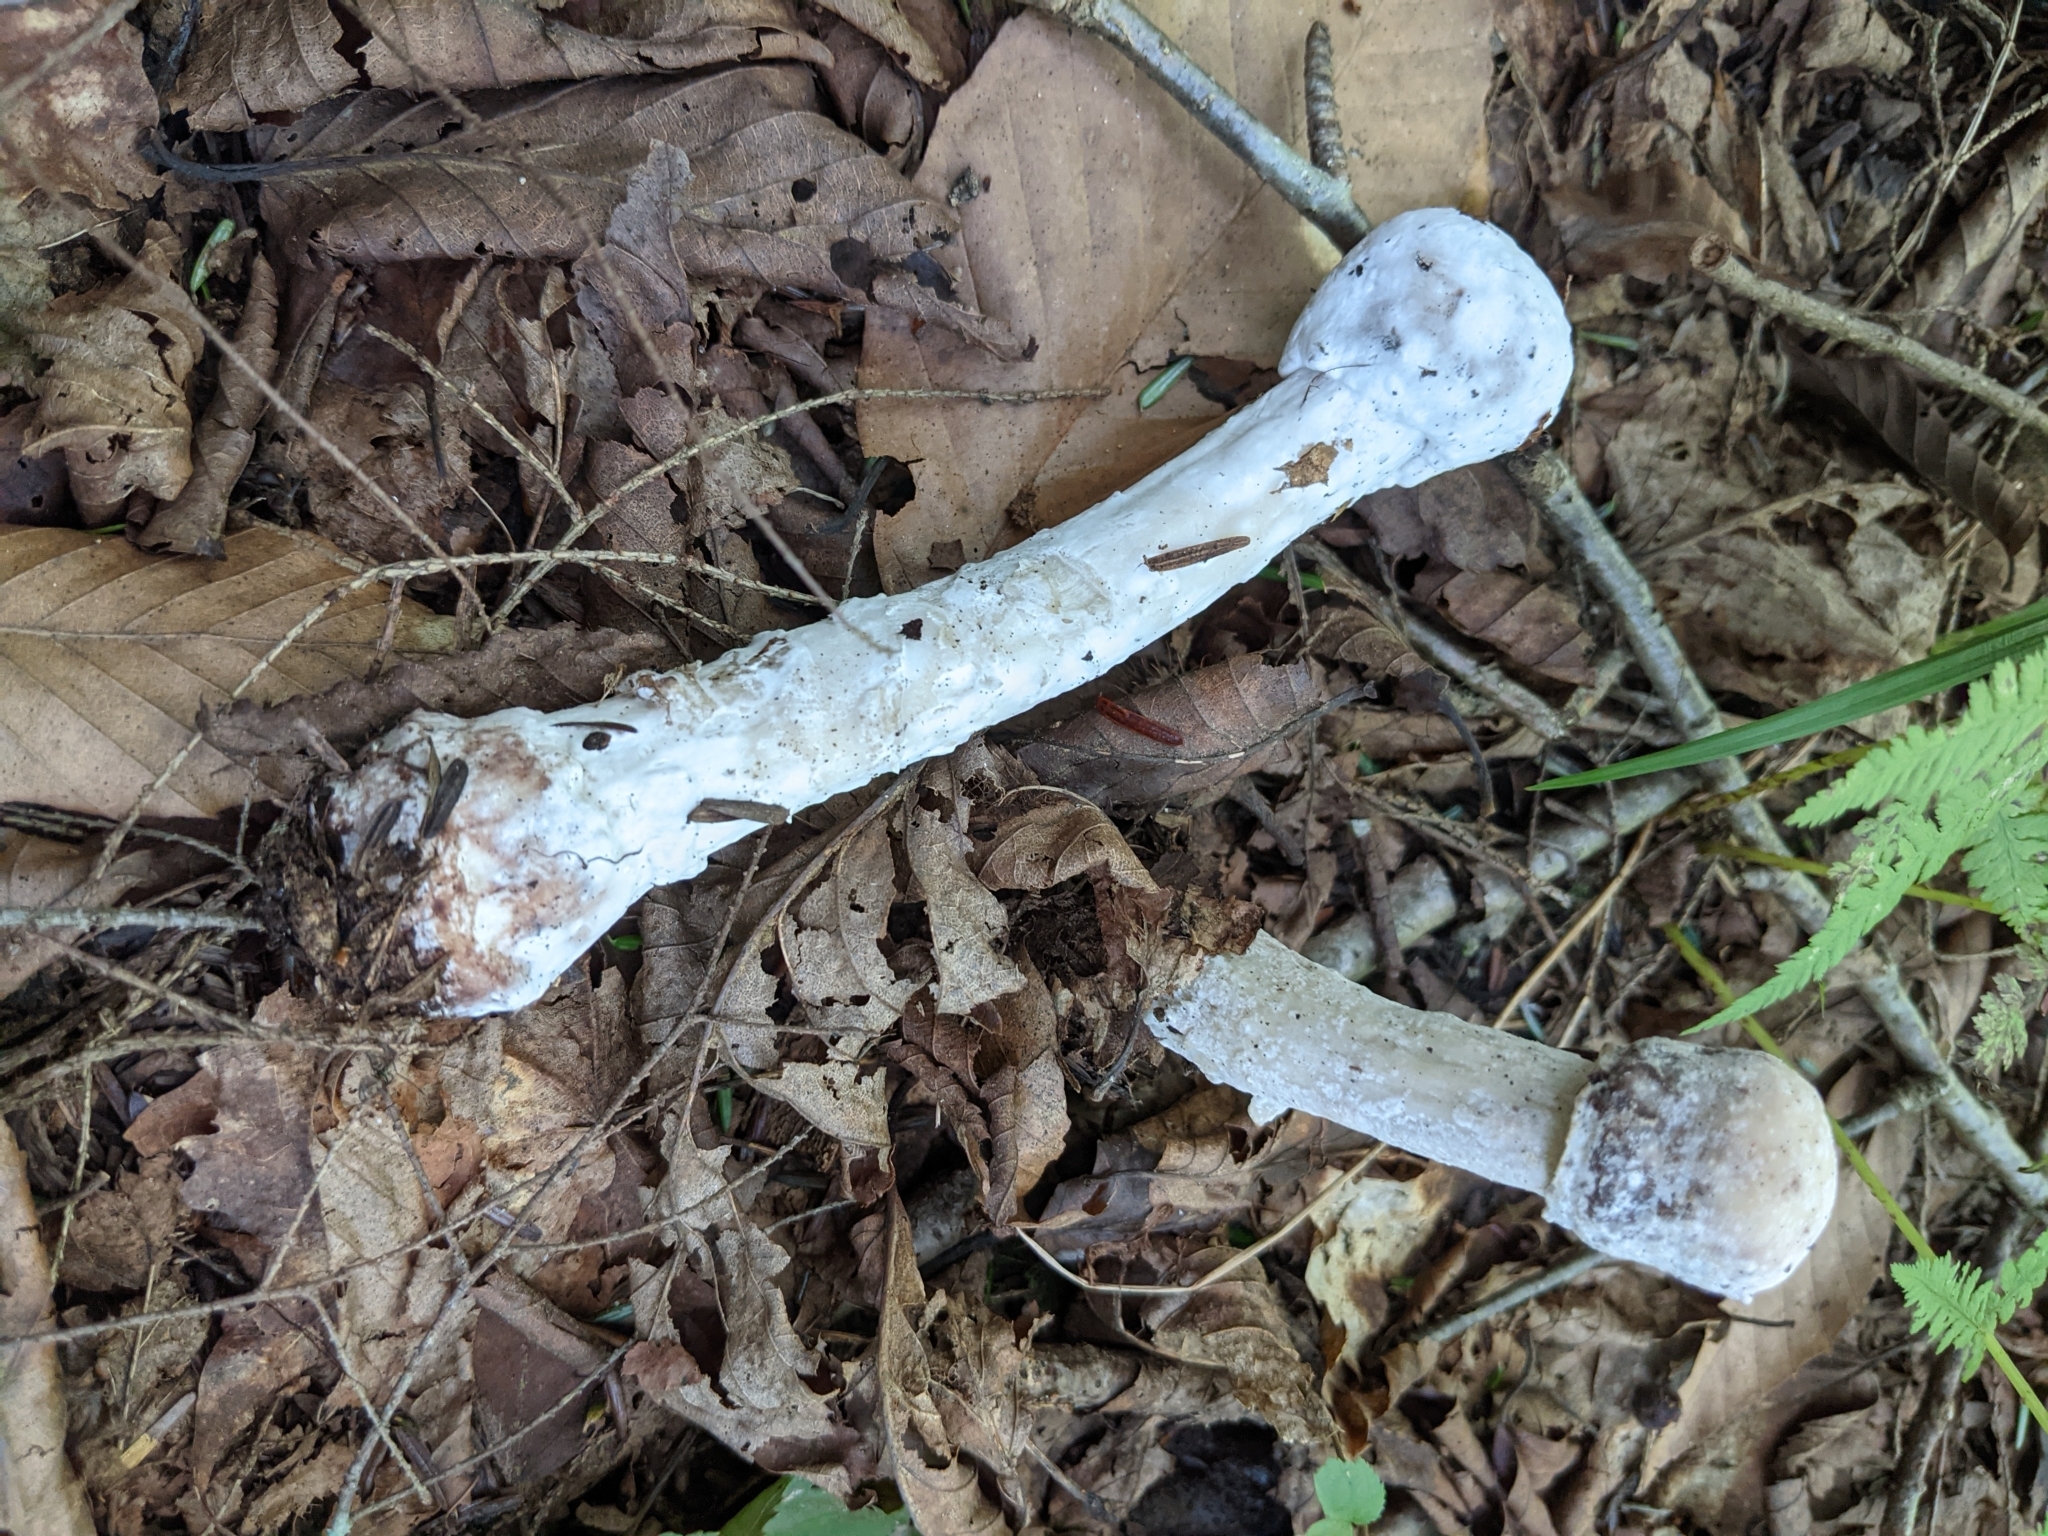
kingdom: Fungi
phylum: Ascomycota
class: Sordariomycetes
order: Hypocreales
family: Hypocreaceae
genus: Hypomyces
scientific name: Hypomyces hyalinus
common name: Amanita mold
